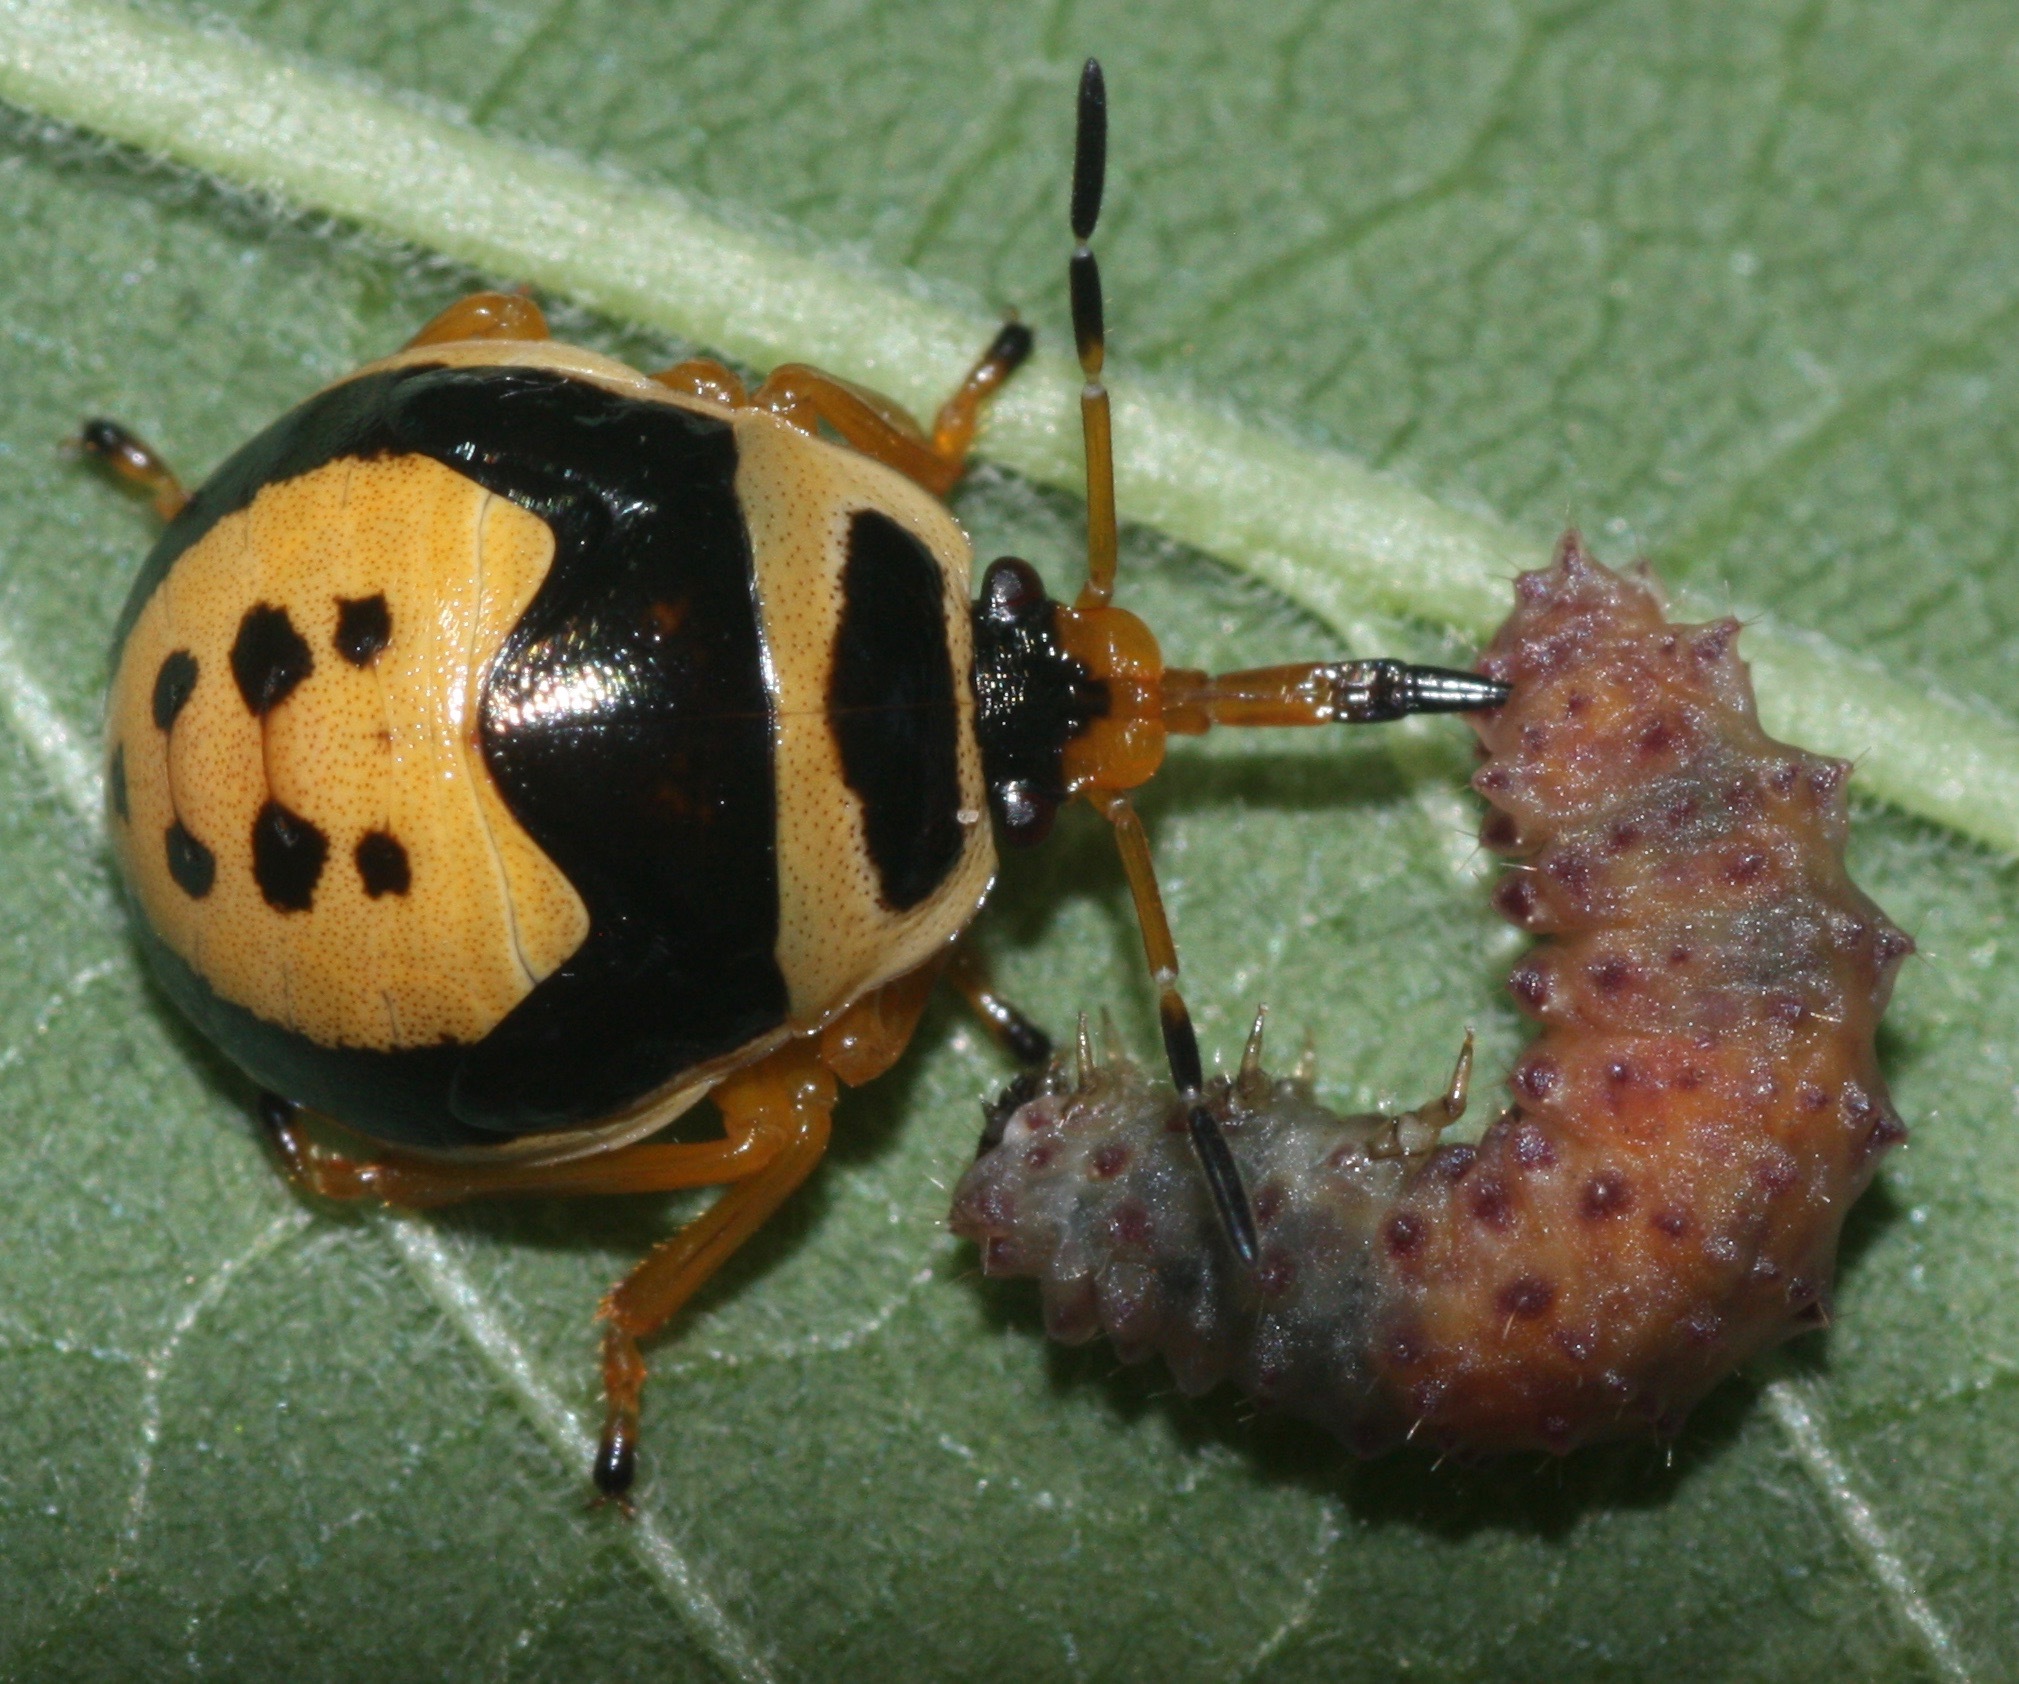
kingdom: Animalia
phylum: Arthropoda
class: Insecta
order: Hemiptera
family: Pentatomidae
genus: Stiretrus
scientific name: Stiretrus anchorago
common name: Anchor stink bug
